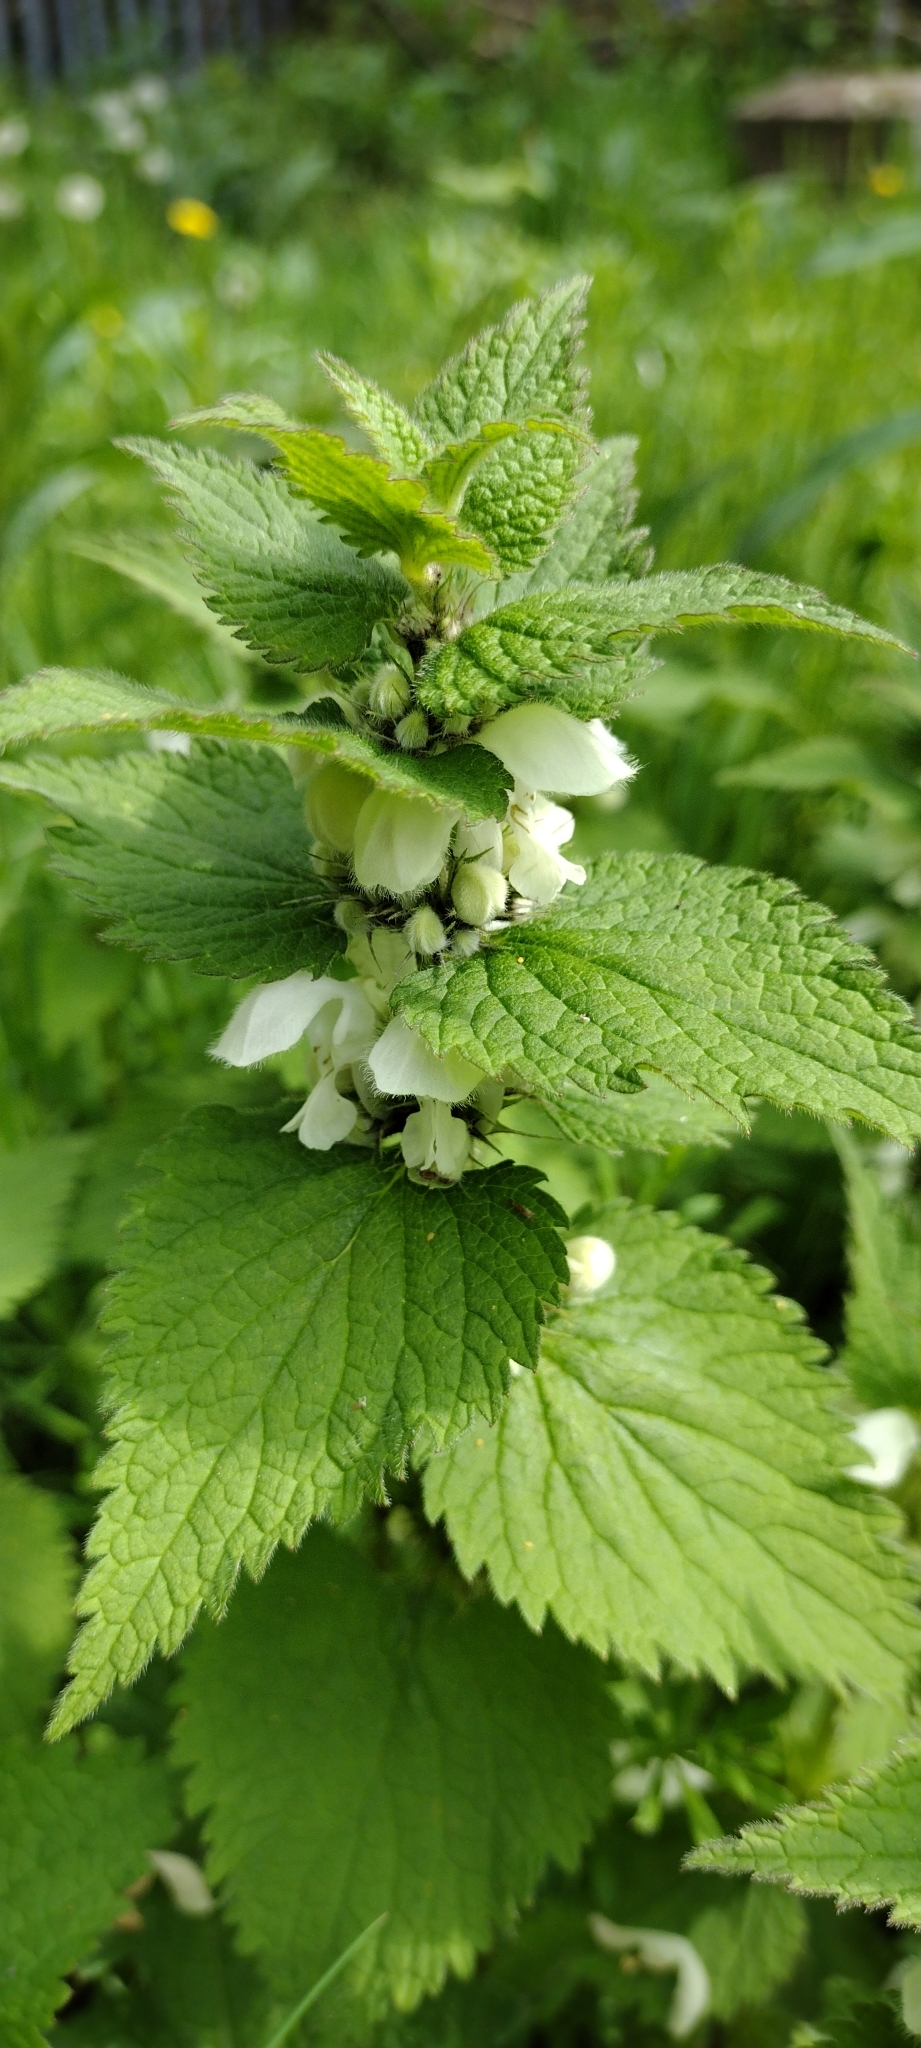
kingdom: Plantae
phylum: Tracheophyta
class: Magnoliopsida
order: Lamiales
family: Lamiaceae
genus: Lamium
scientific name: Lamium album
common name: White dead-nettle
